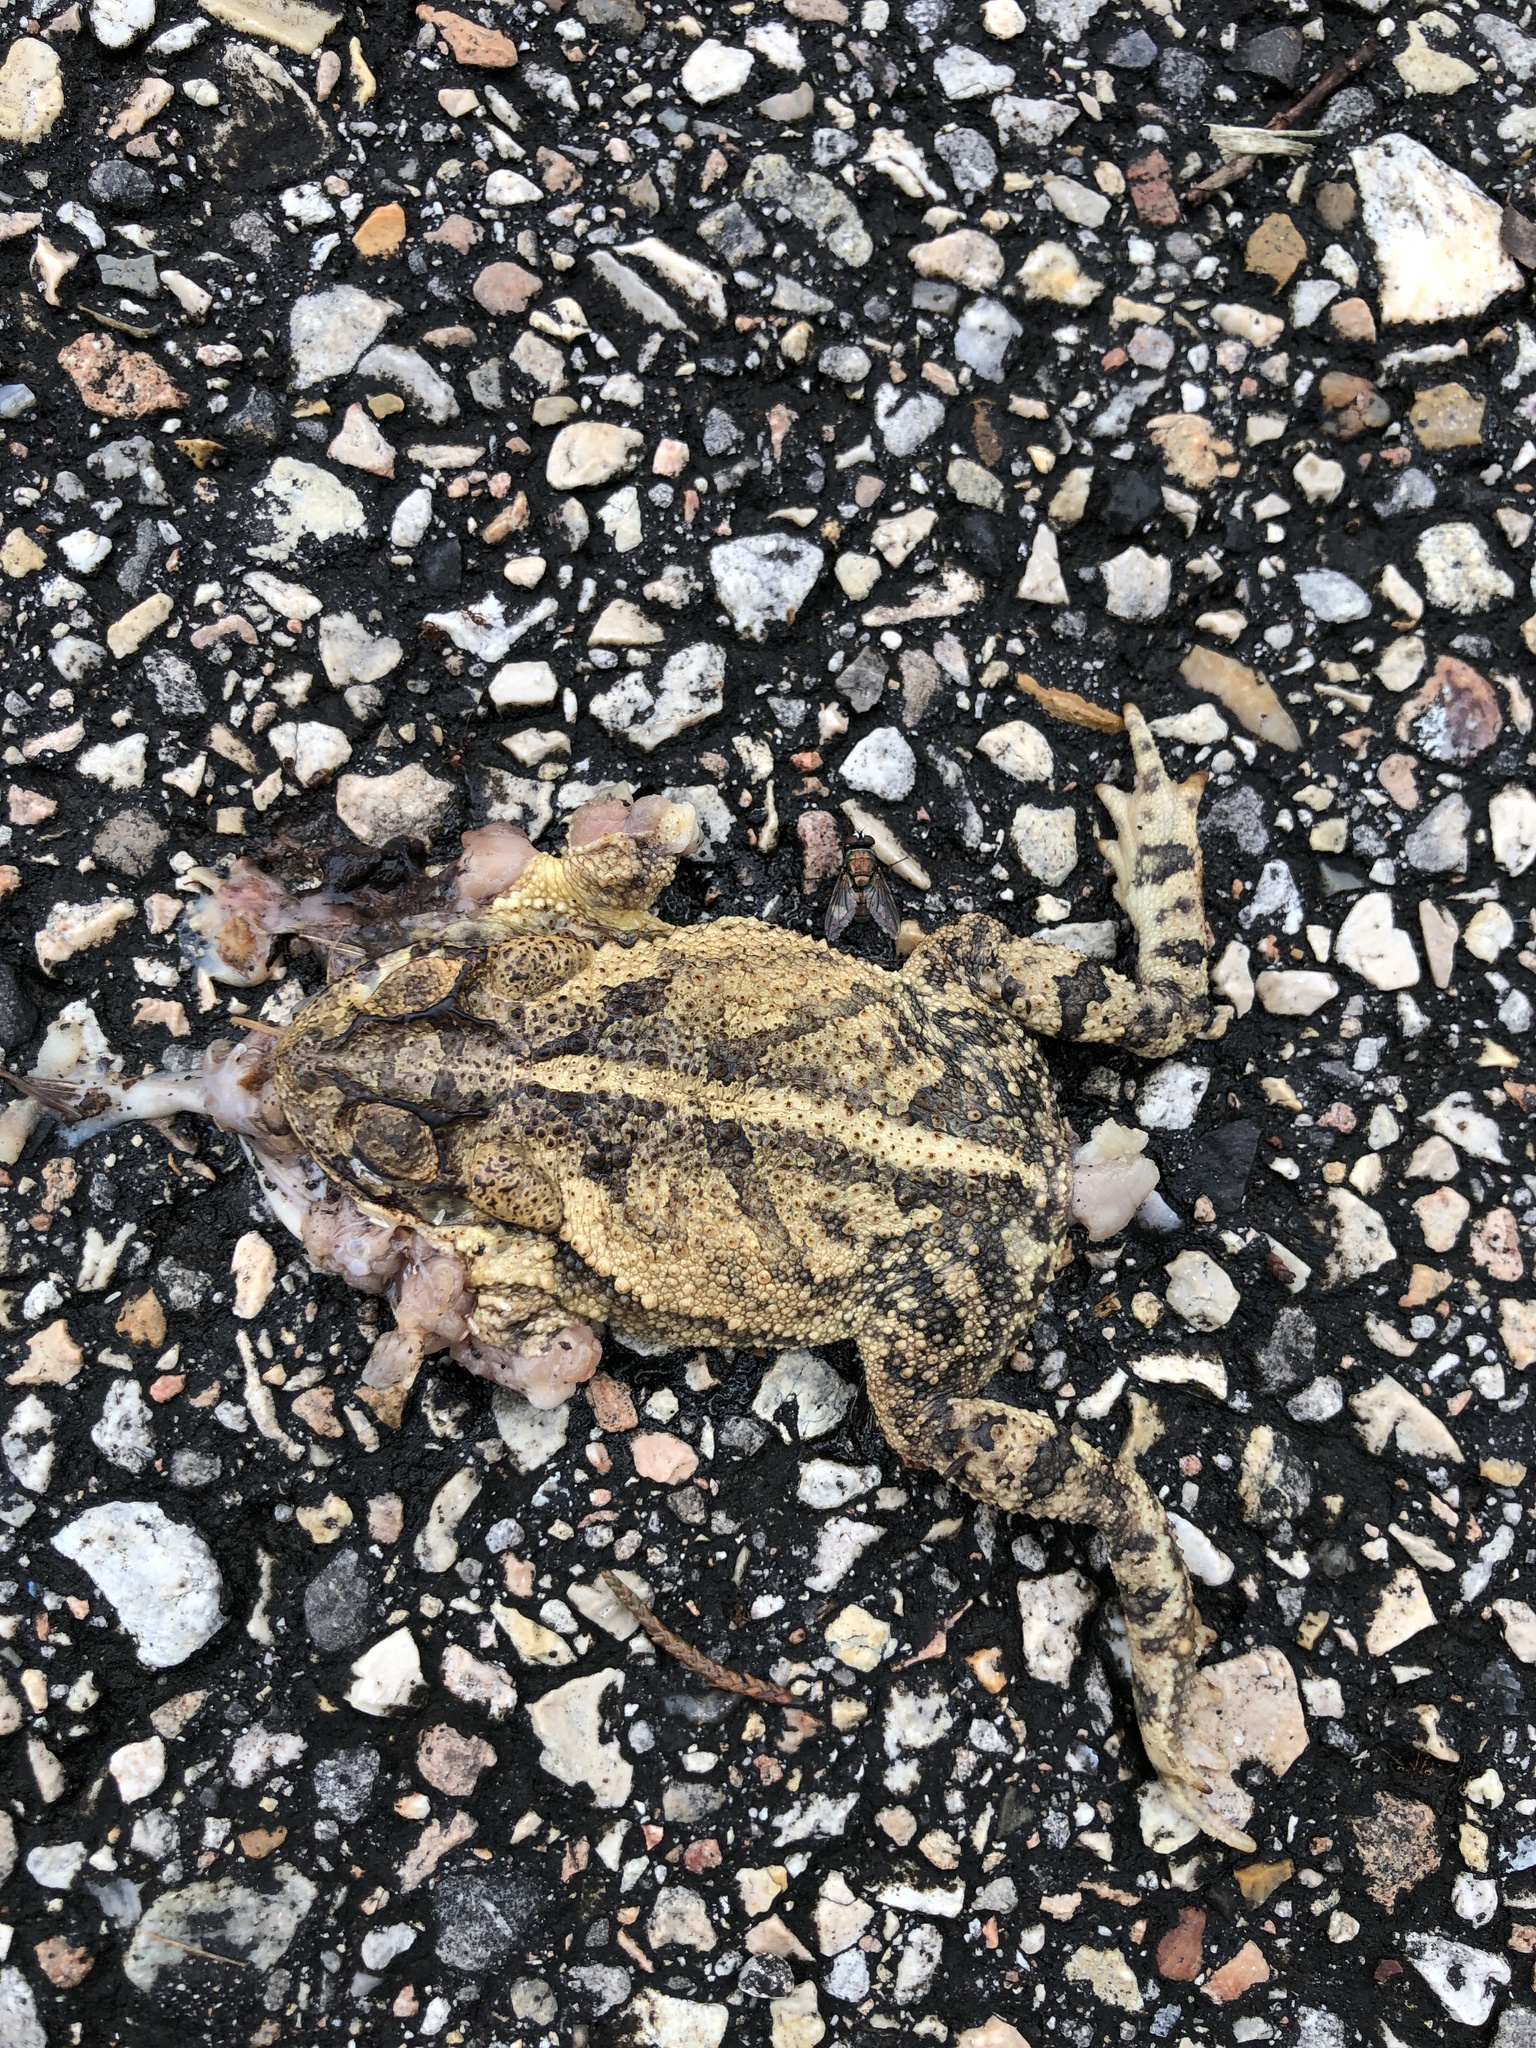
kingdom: Animalia
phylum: Chordata
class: Amphibia
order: Anura
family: Bufonidae
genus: Incilius
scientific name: Incilius nebulifer
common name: Gulf coast toad
